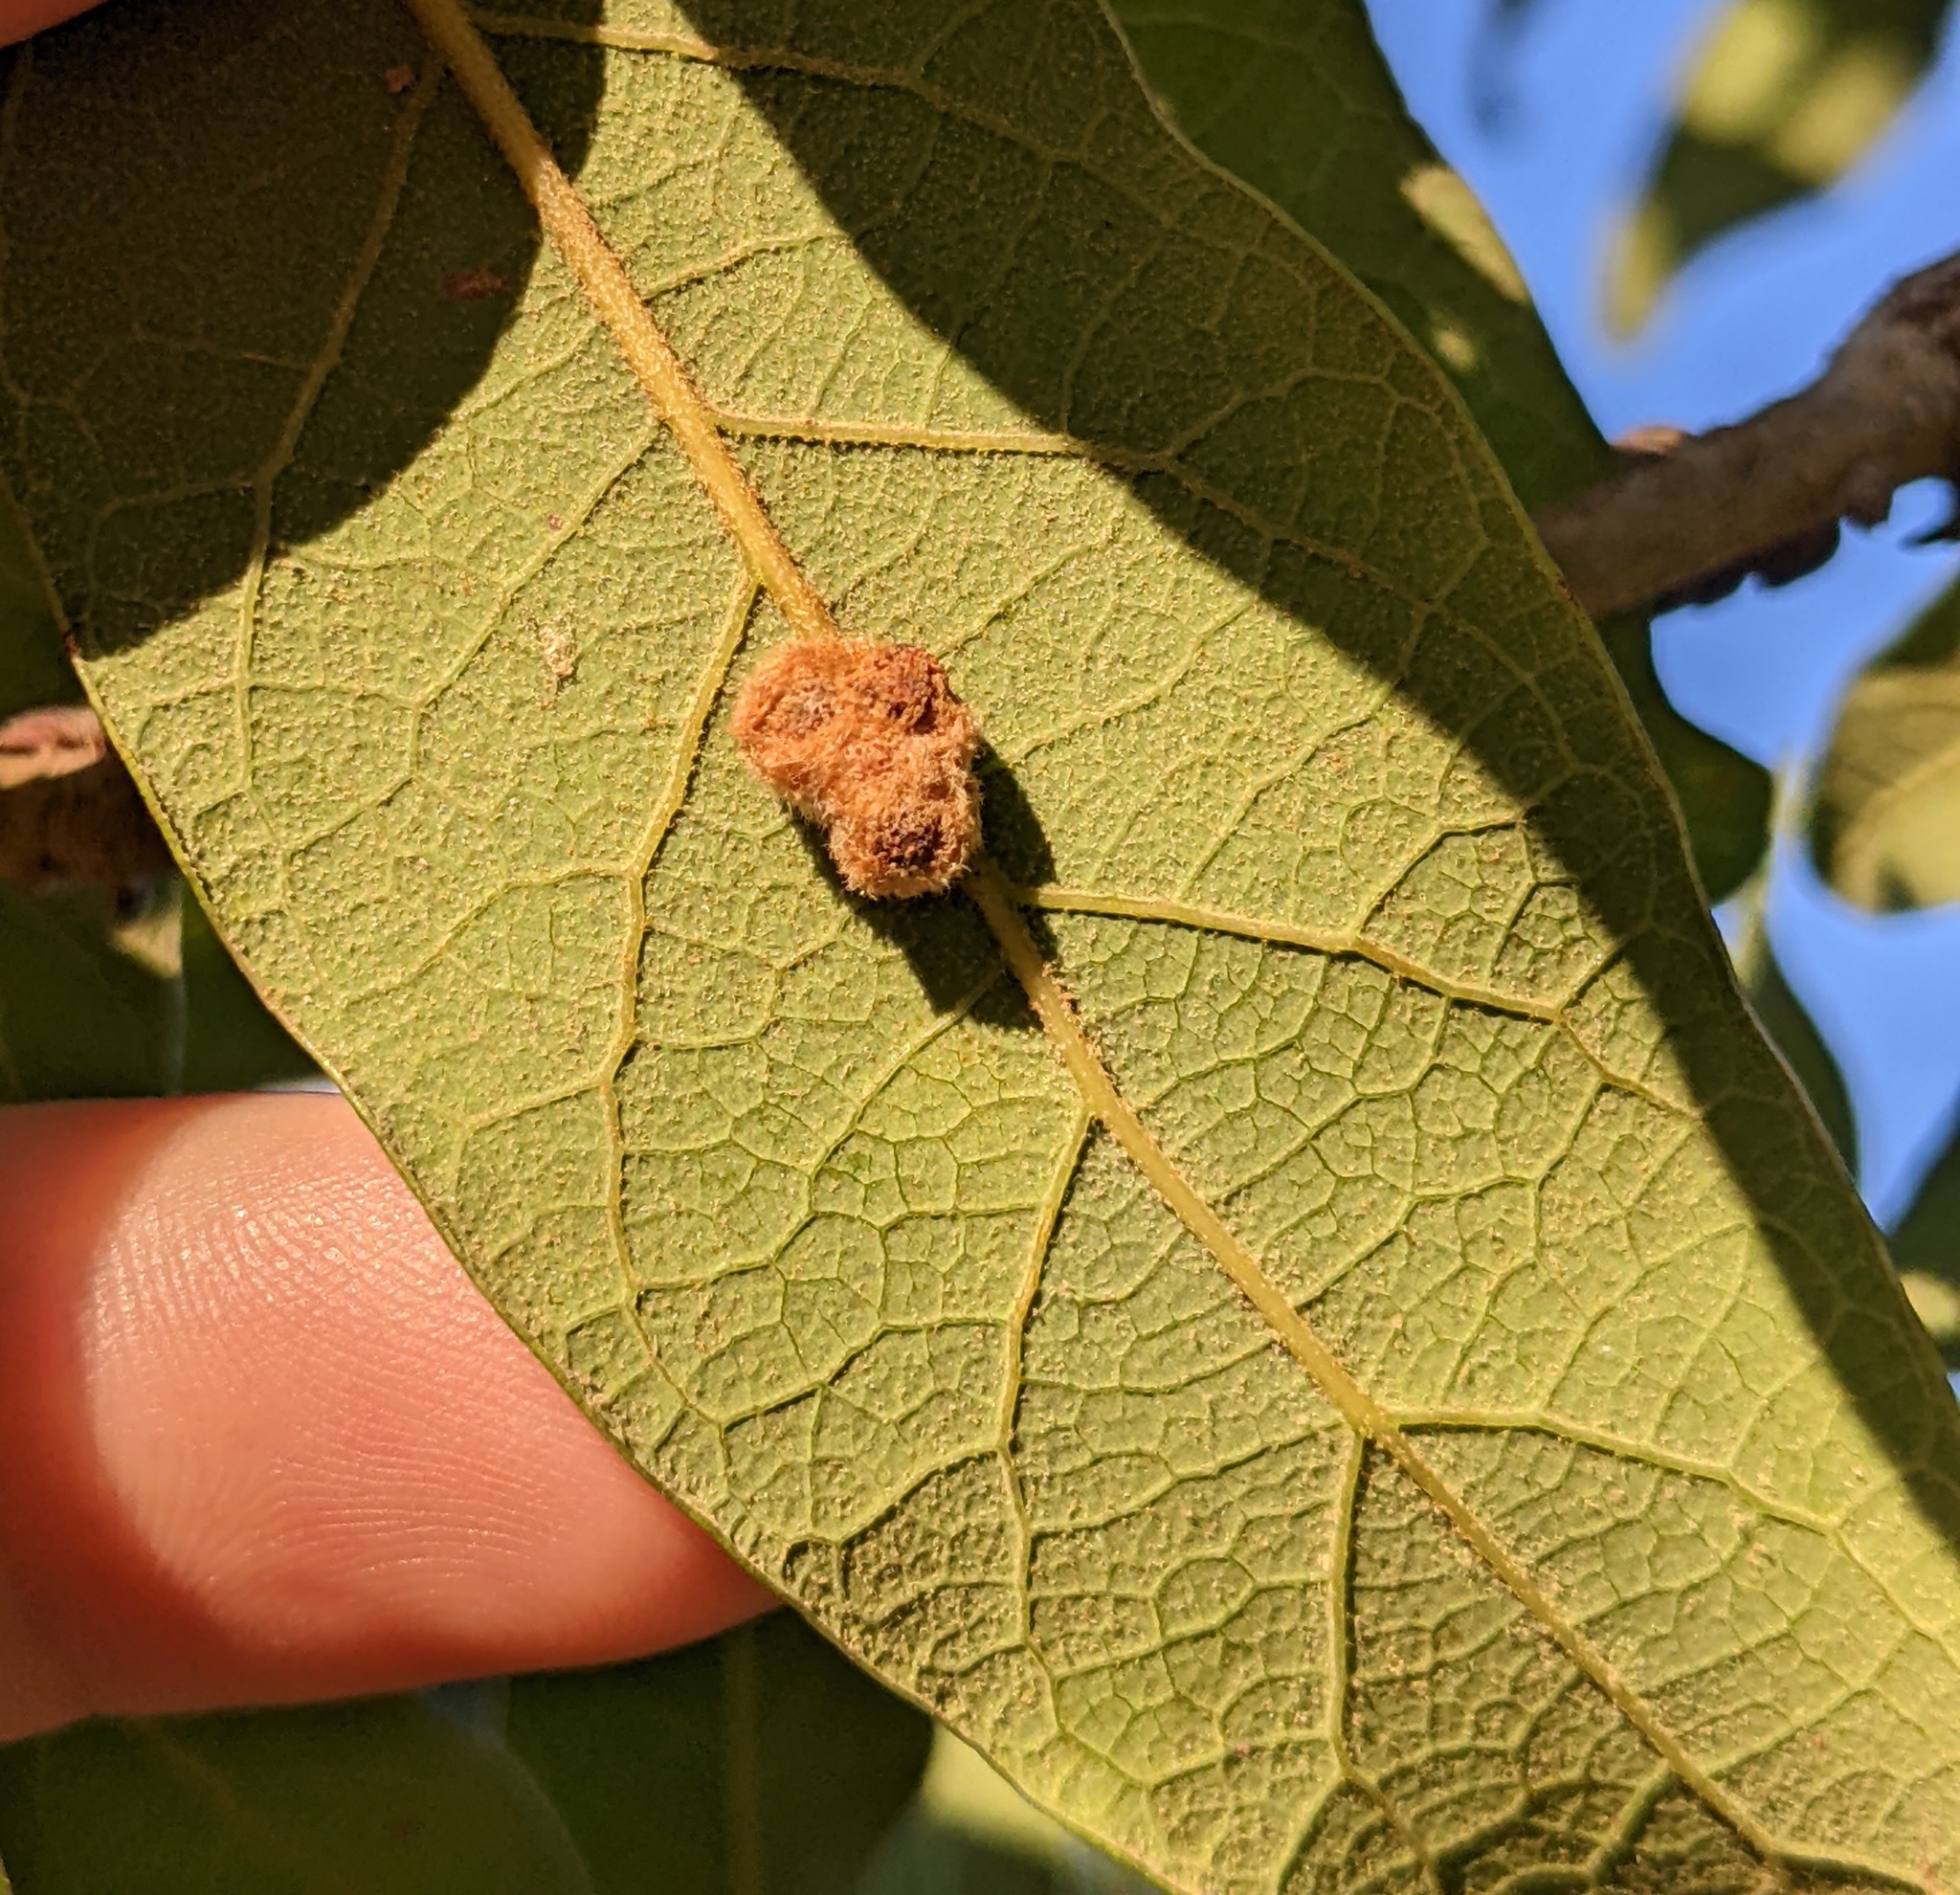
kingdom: Animalia
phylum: Arthropoda
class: Insecta
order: Hymenoptera
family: Cynipidae
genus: Andricus
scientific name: Andricus Druon pattoni
